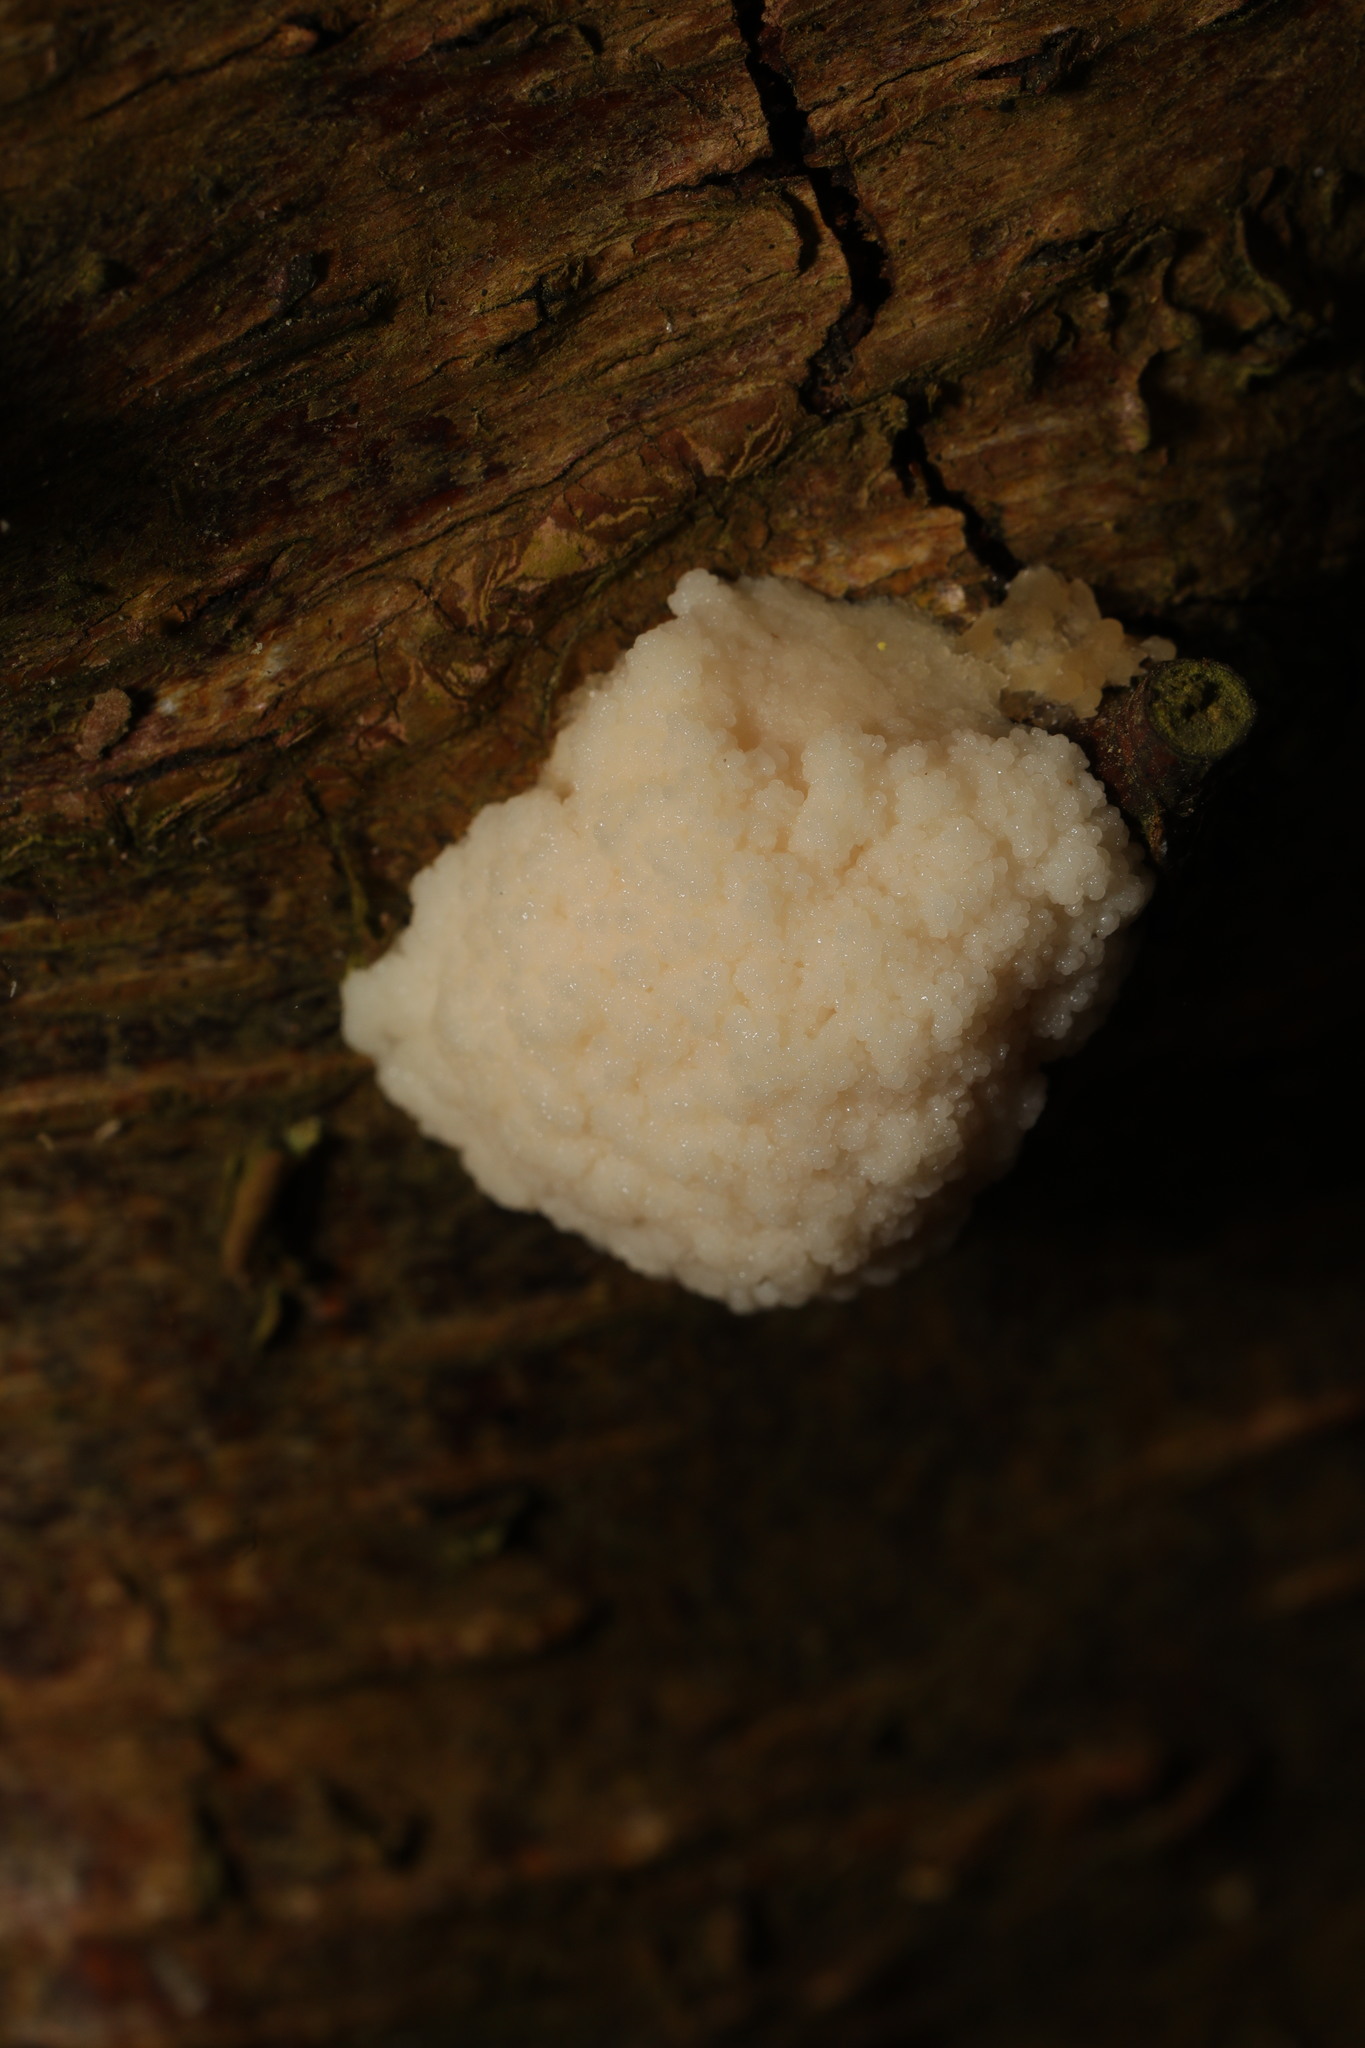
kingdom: Protozoa
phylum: Mycetozoa
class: Myxomycetes
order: Cribrariales
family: Tubiferaceae
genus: Reticularia
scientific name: Reticularia lycoperdon
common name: False puffball
